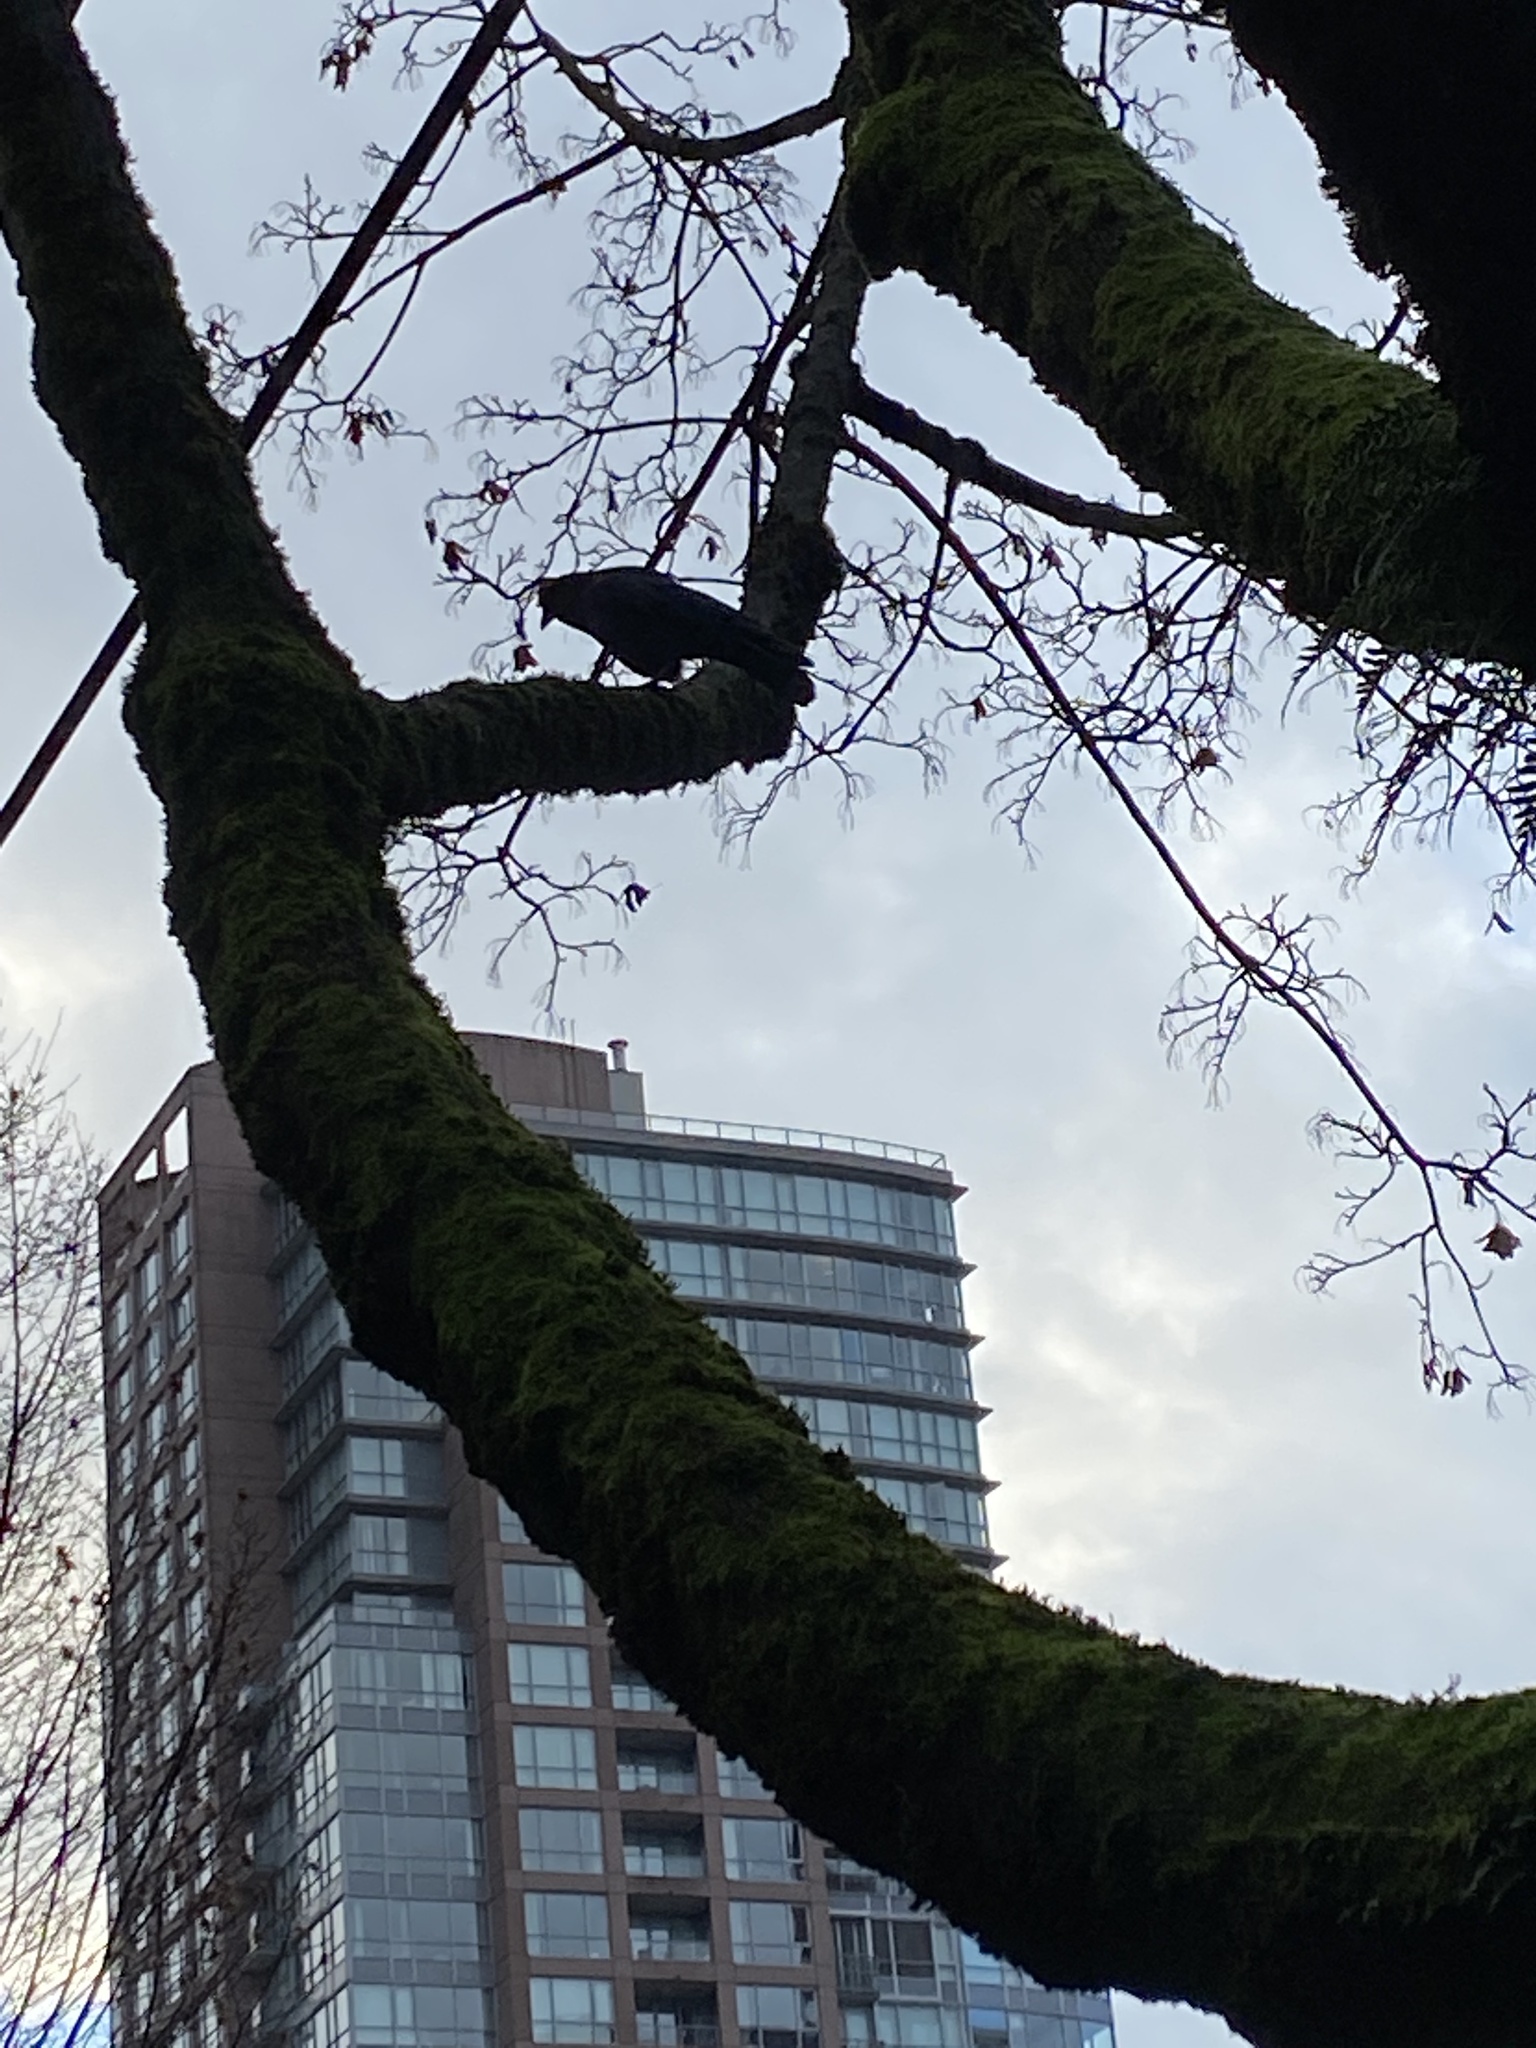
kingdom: Animalia
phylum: Chordata
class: Aves
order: Passeriformes
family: Corvidae
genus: Corvus
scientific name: Corvus brachyrhynchos
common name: American crow
